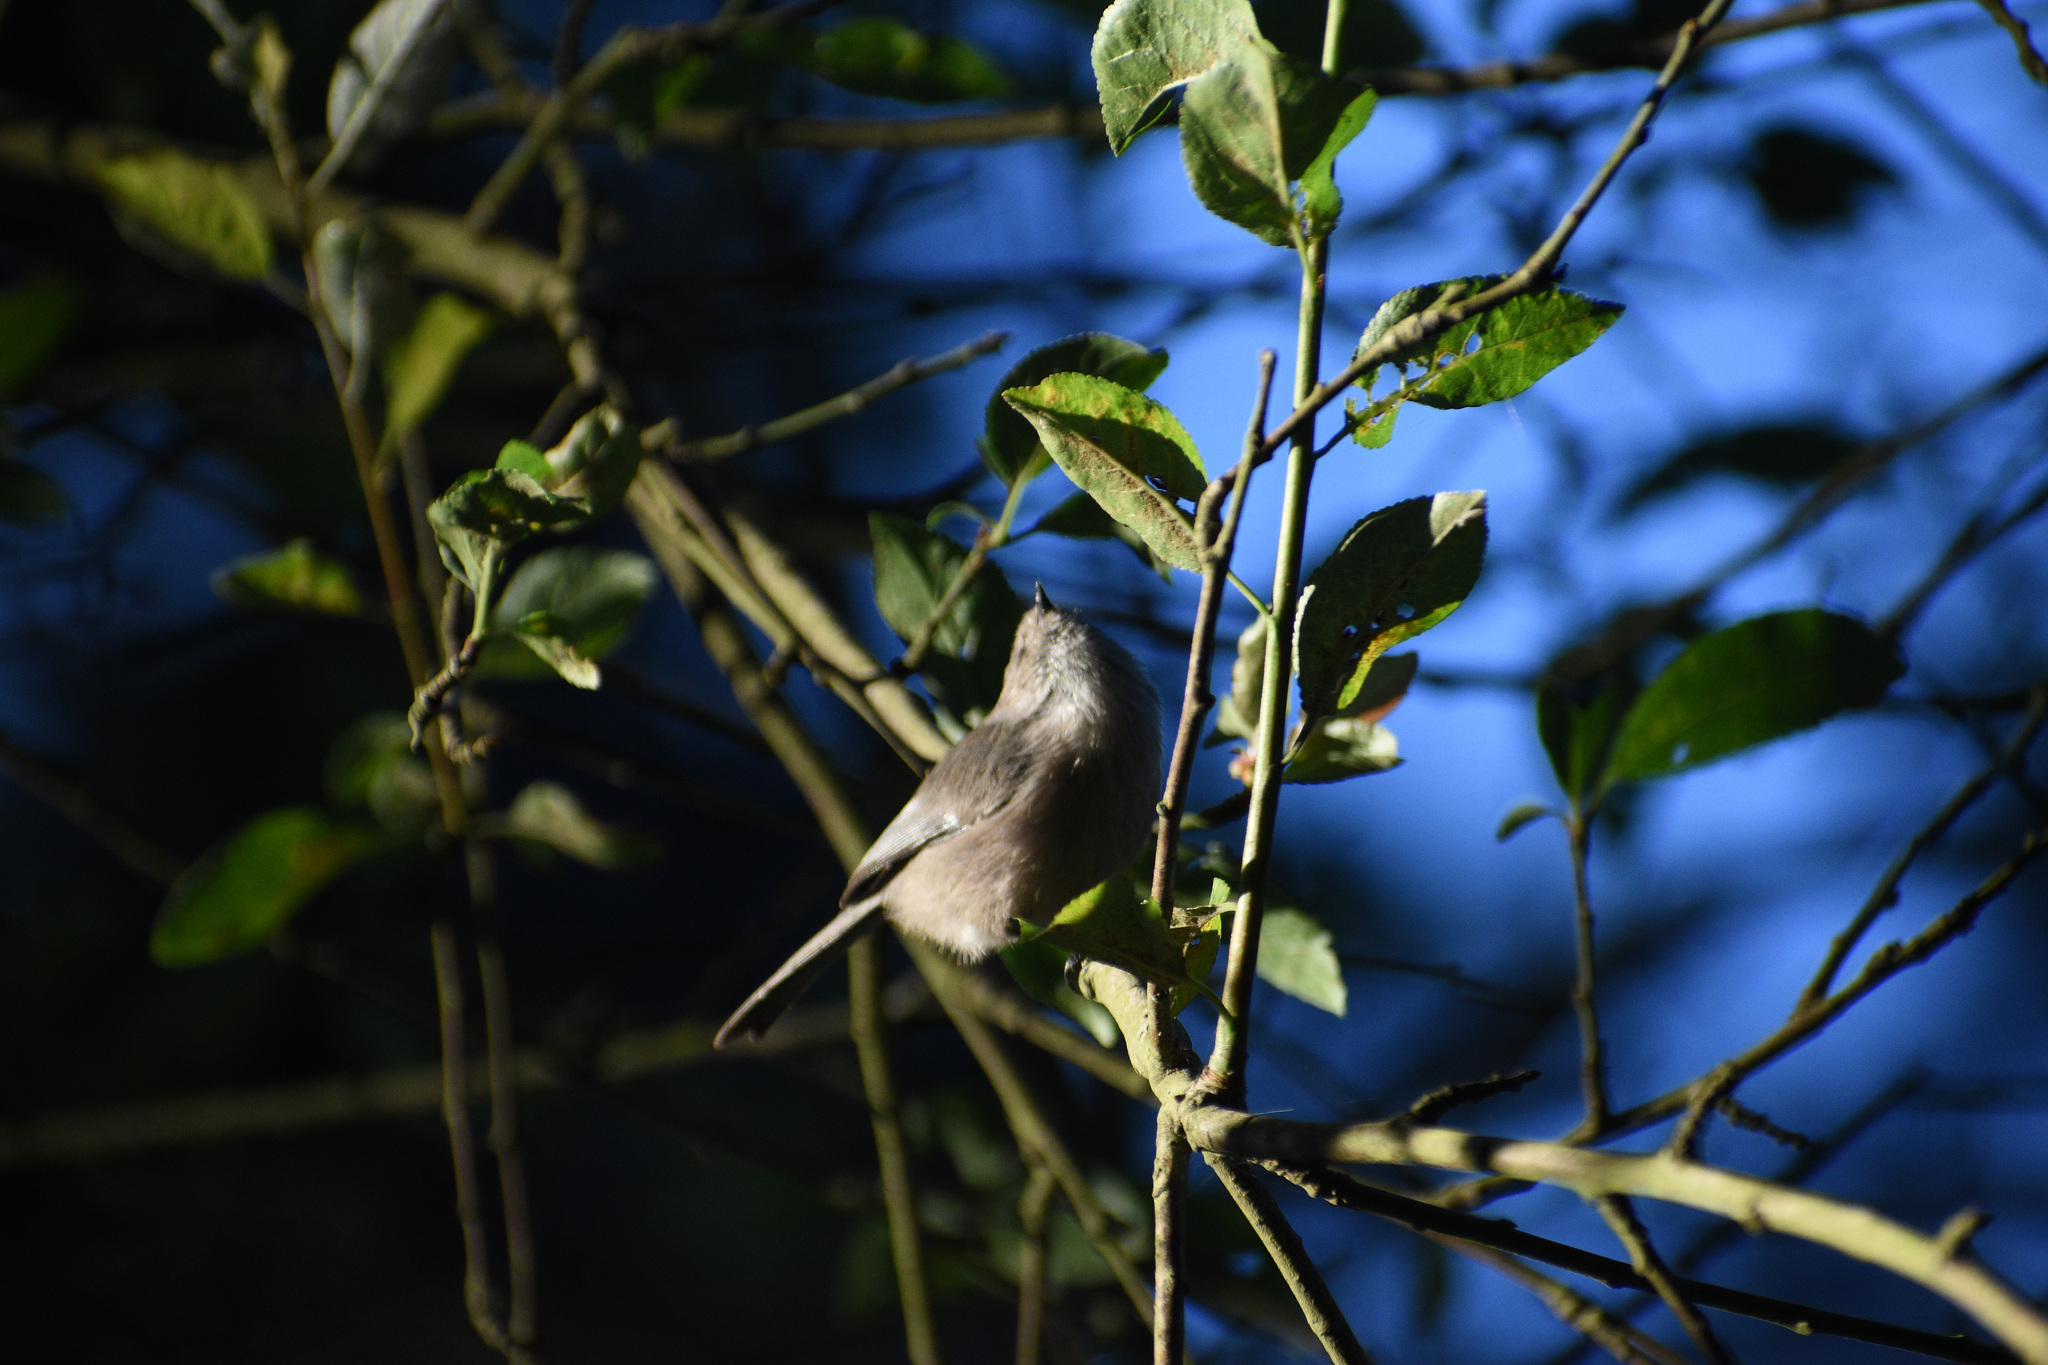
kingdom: Animalia
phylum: Chordata
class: Aves
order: Passeriformes
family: Aegithalidae
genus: Psaltriparus
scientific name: Psaltriparus minimus
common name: American bushtit
